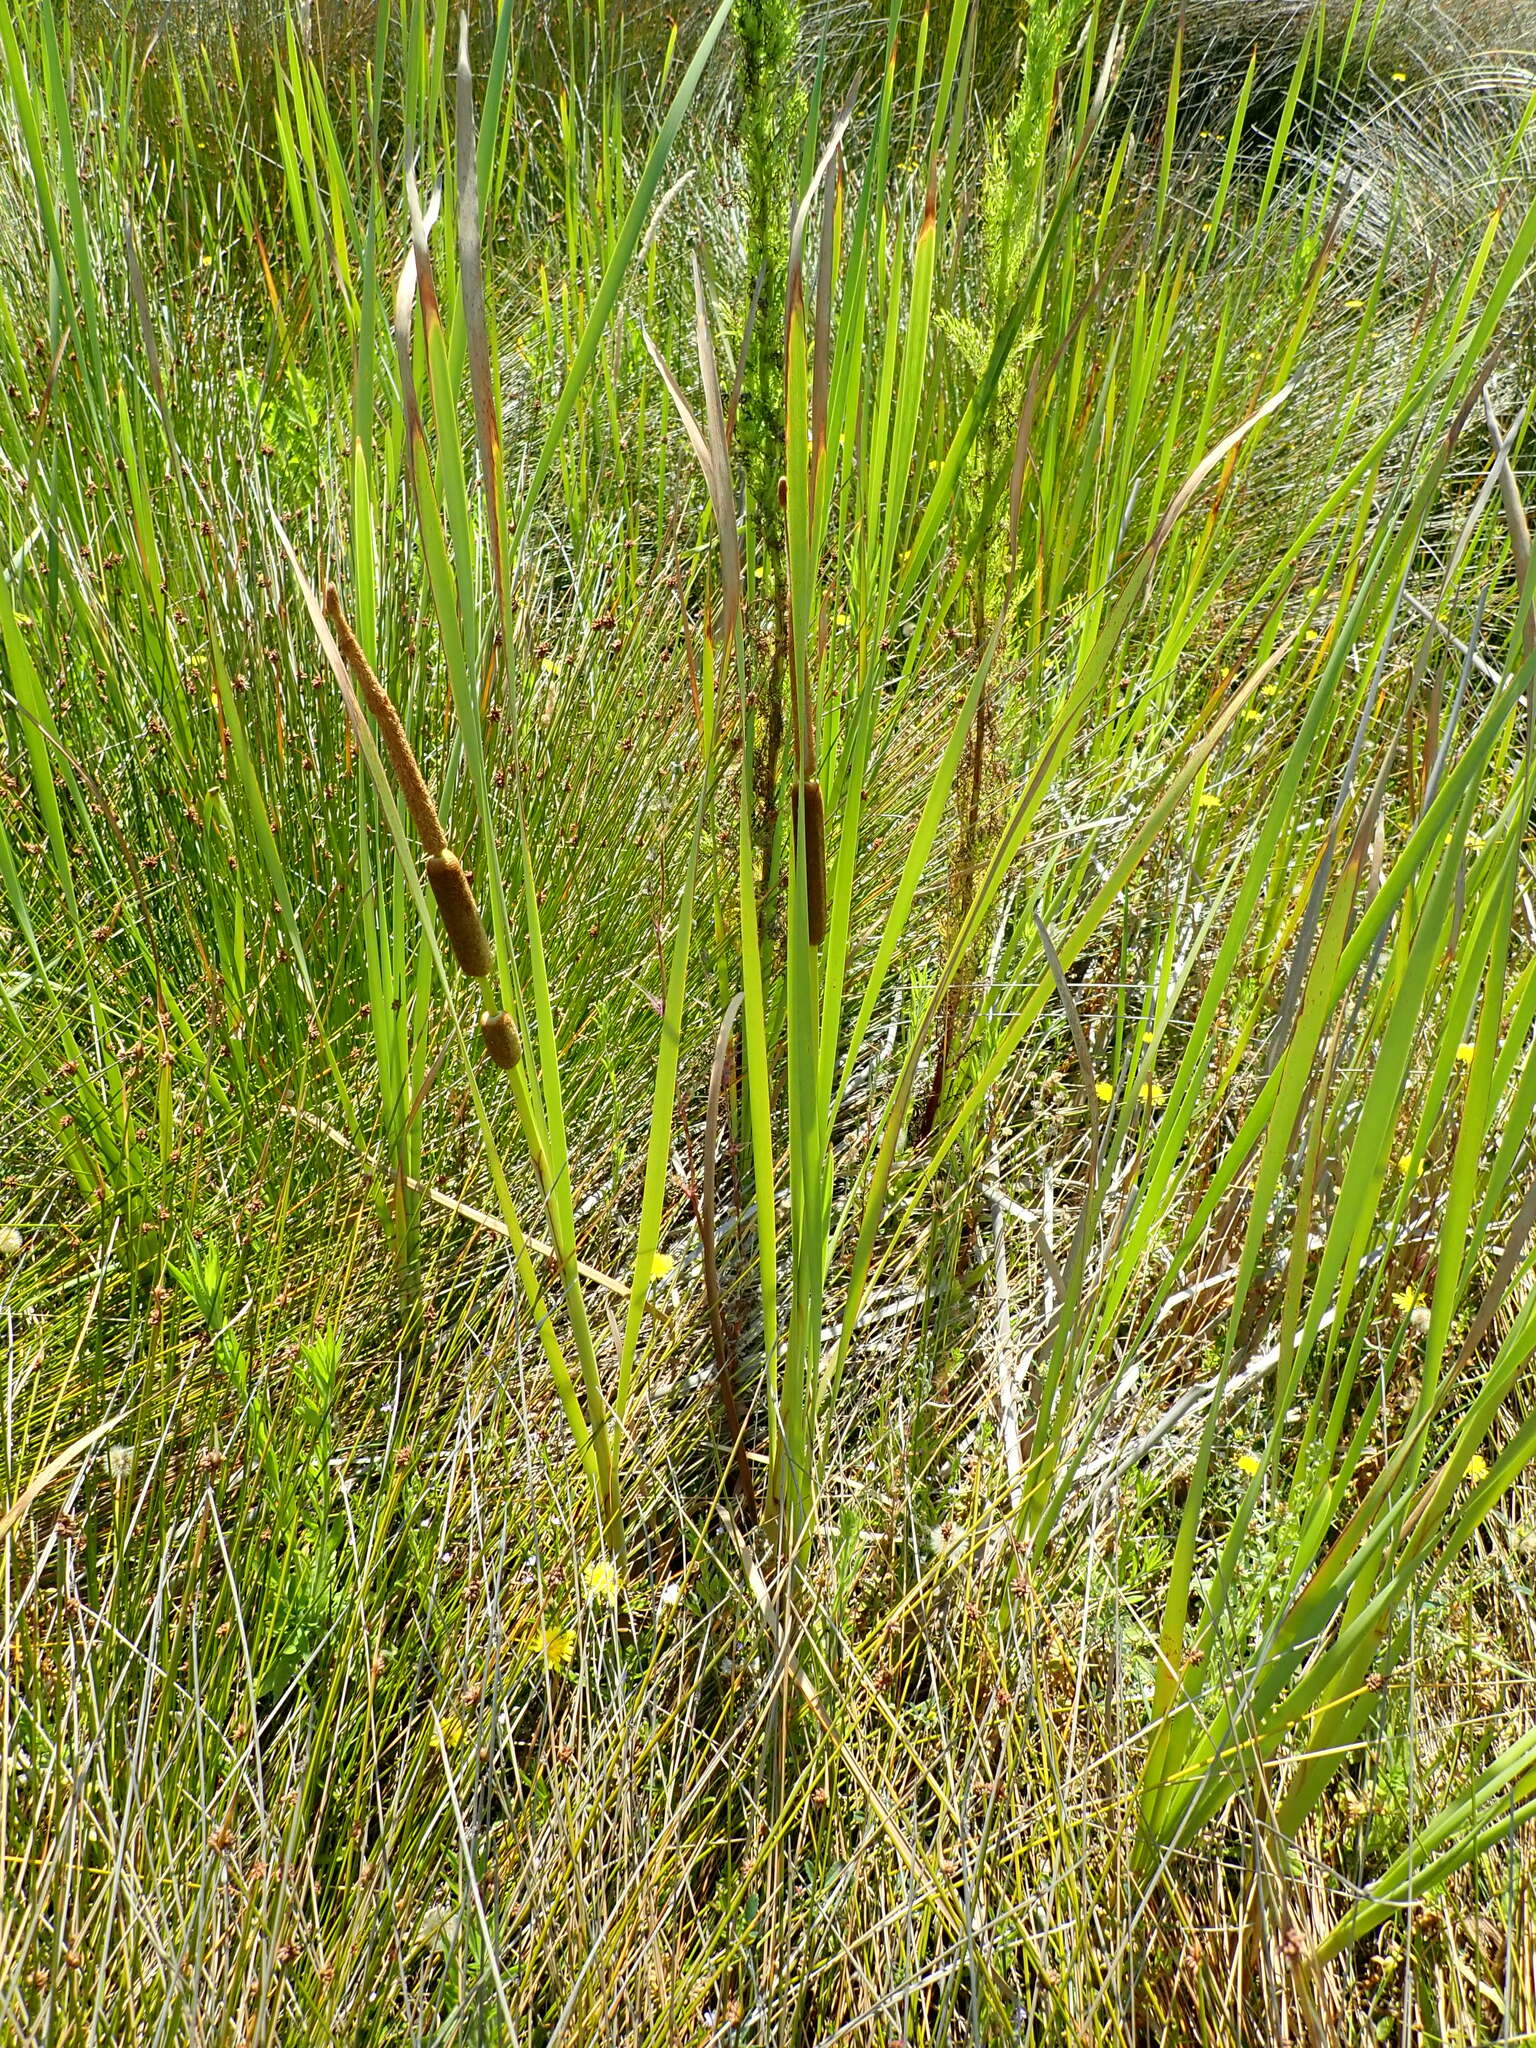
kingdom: Plantae
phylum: Tracheophyta
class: Liliopsida
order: Poales
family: Typhaceae
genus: Typha
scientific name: Typha orientalis
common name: Bullrush
